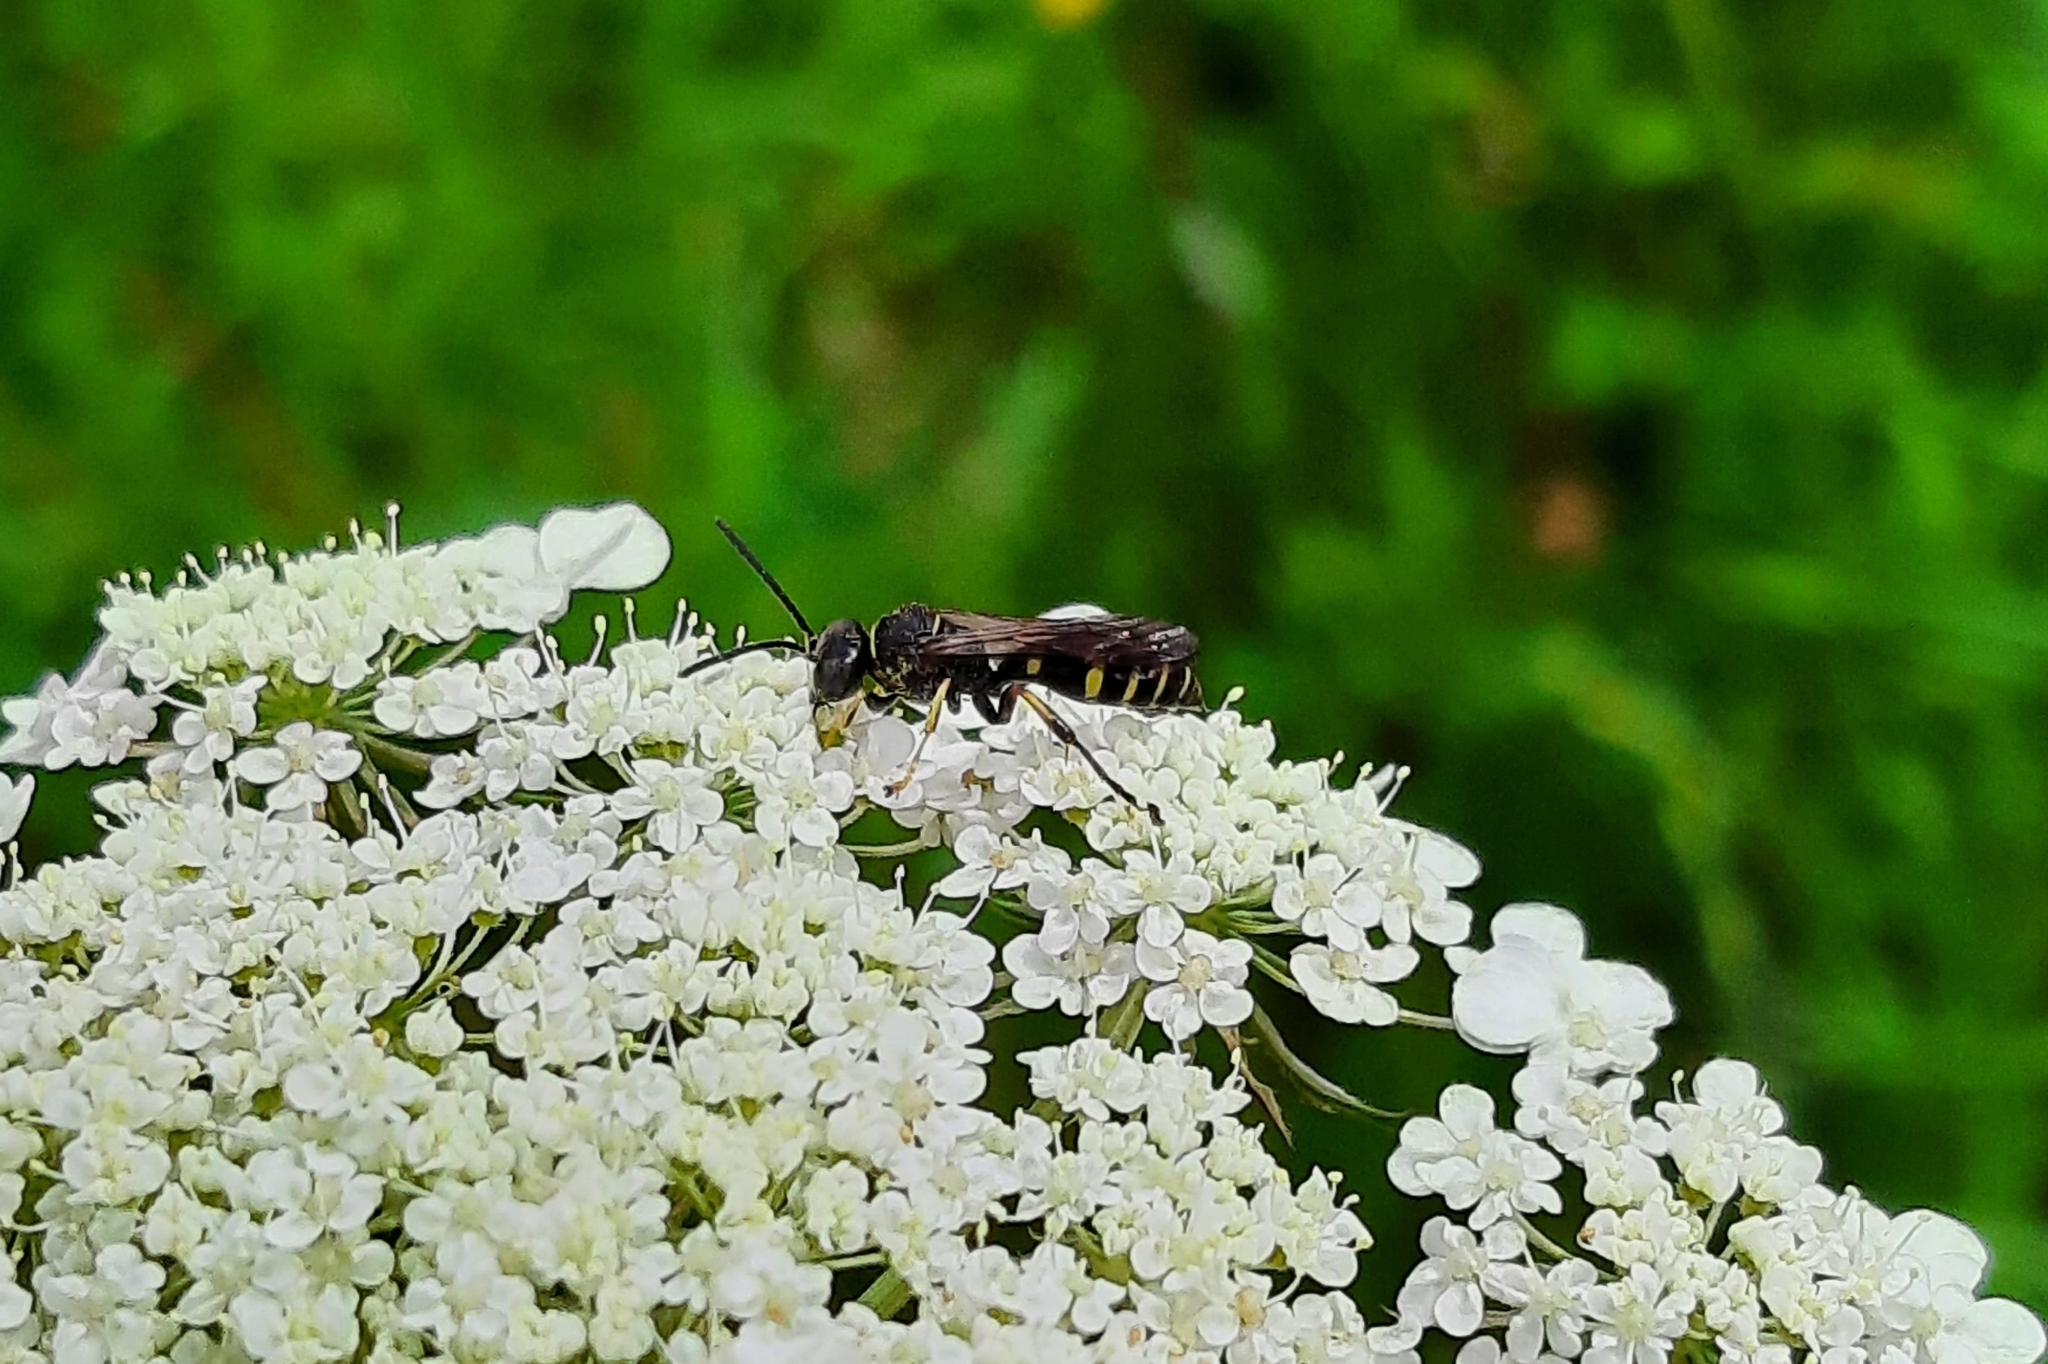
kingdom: Animalia
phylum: Arthropoda
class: Insecta
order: Hymenoptera
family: Crabronidae
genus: Gorytes
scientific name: Gorytes
